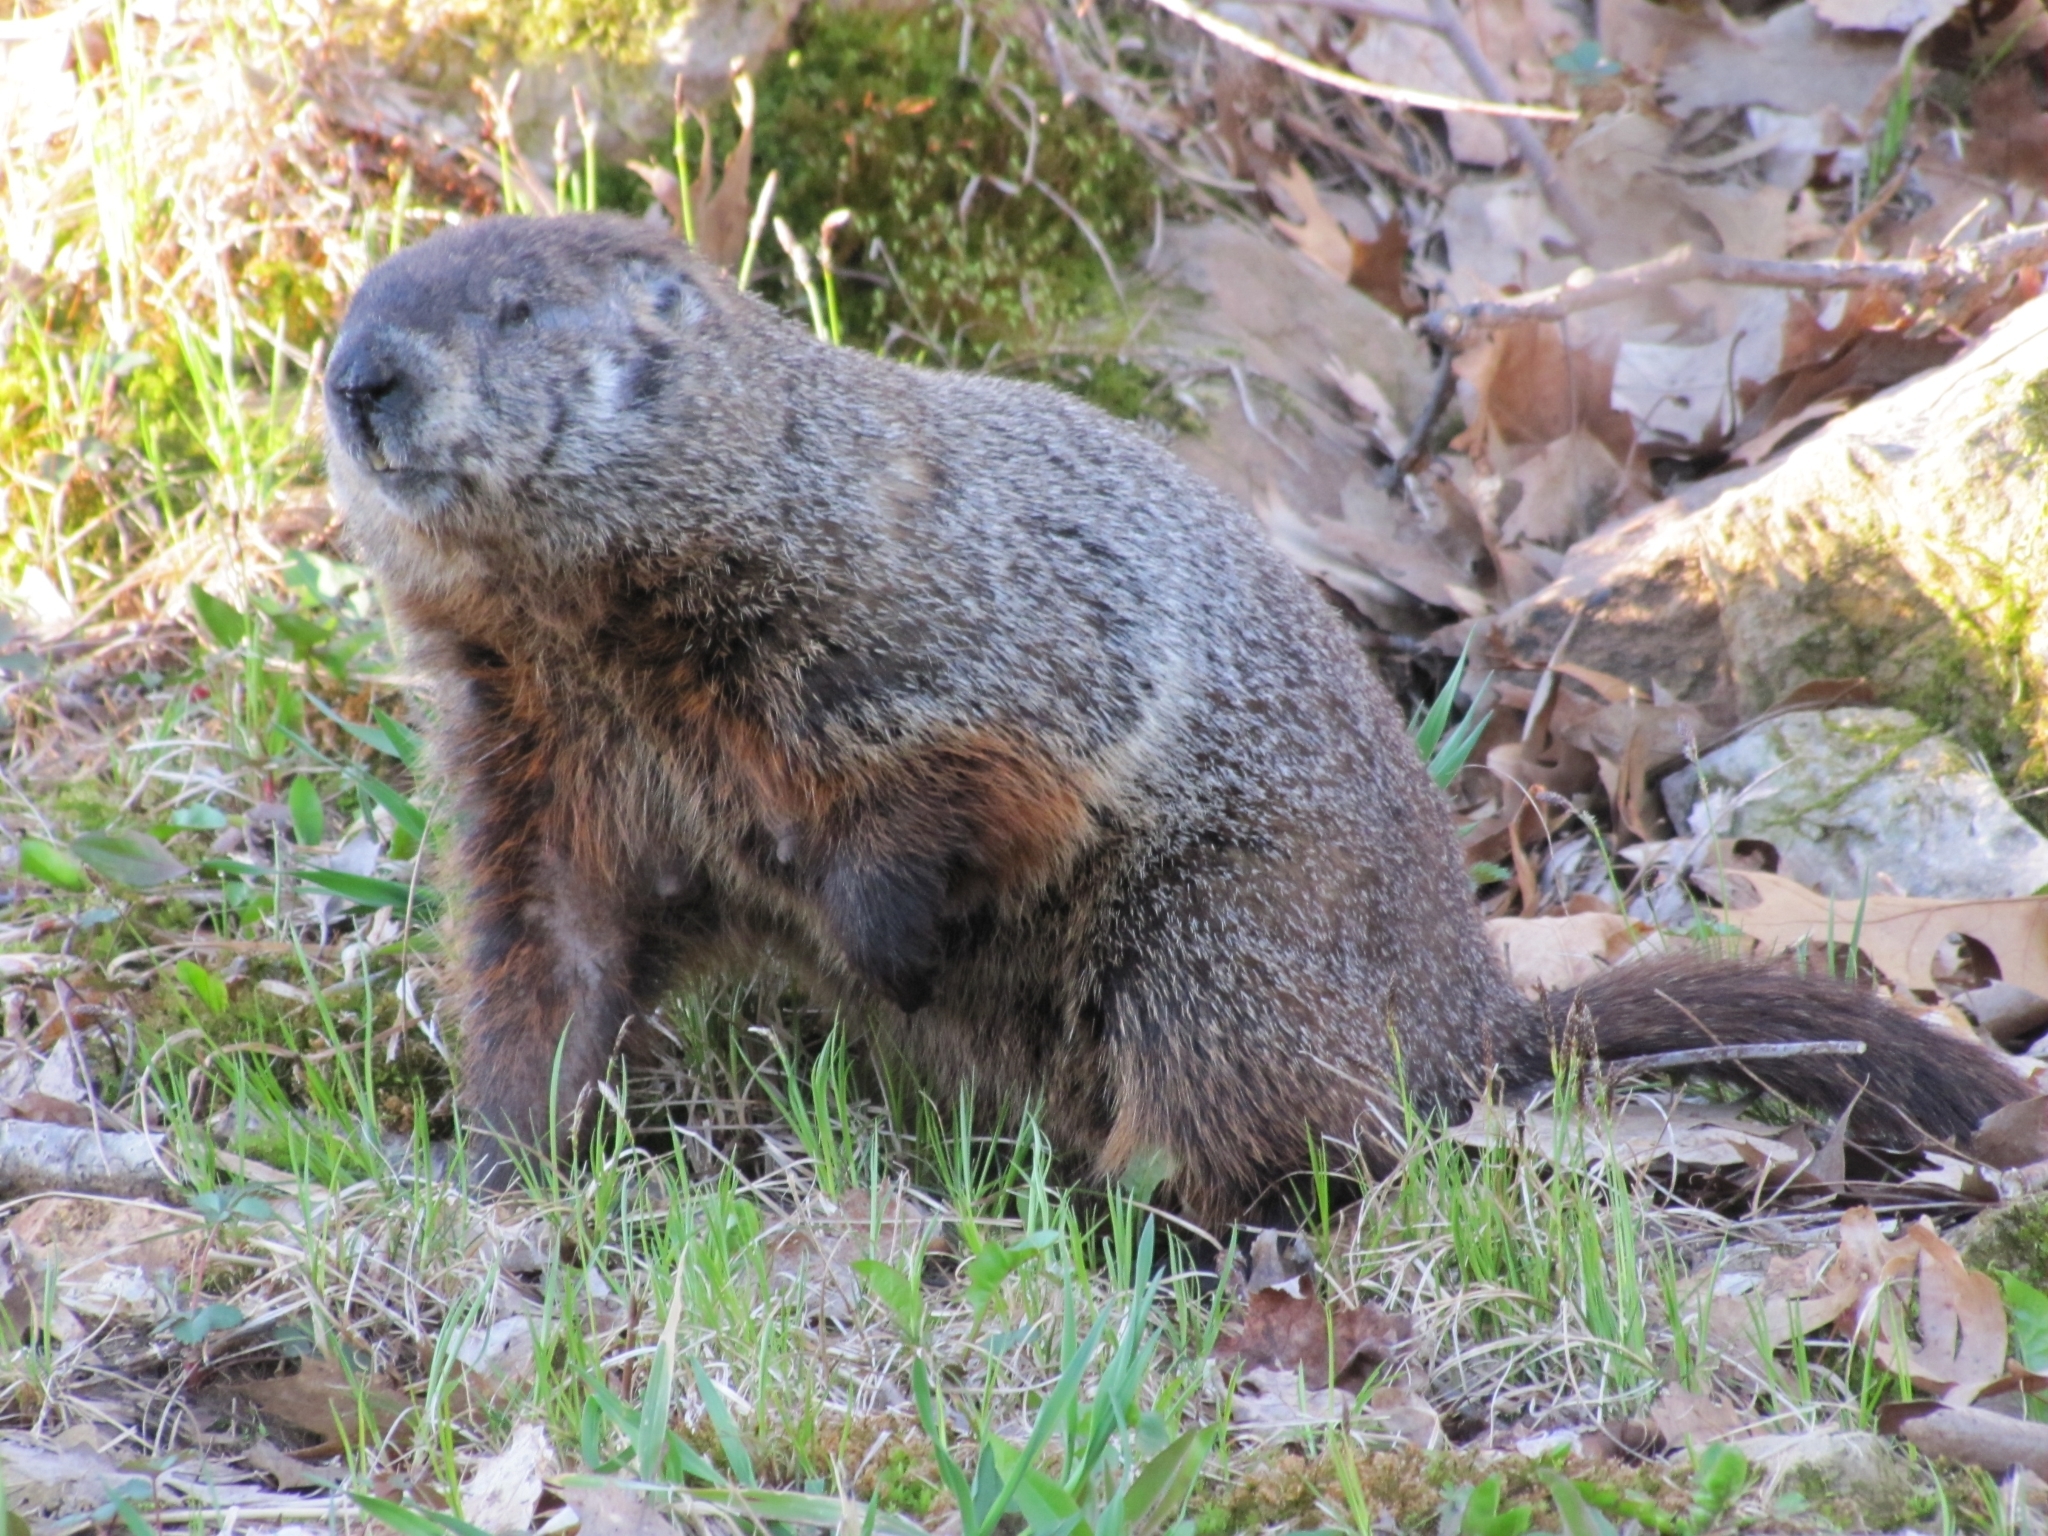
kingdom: Animalia
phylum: Chordata
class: Mammalia
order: Rodentia
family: Sciuridae
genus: Marmota
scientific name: Marmota monax
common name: Groundhog
